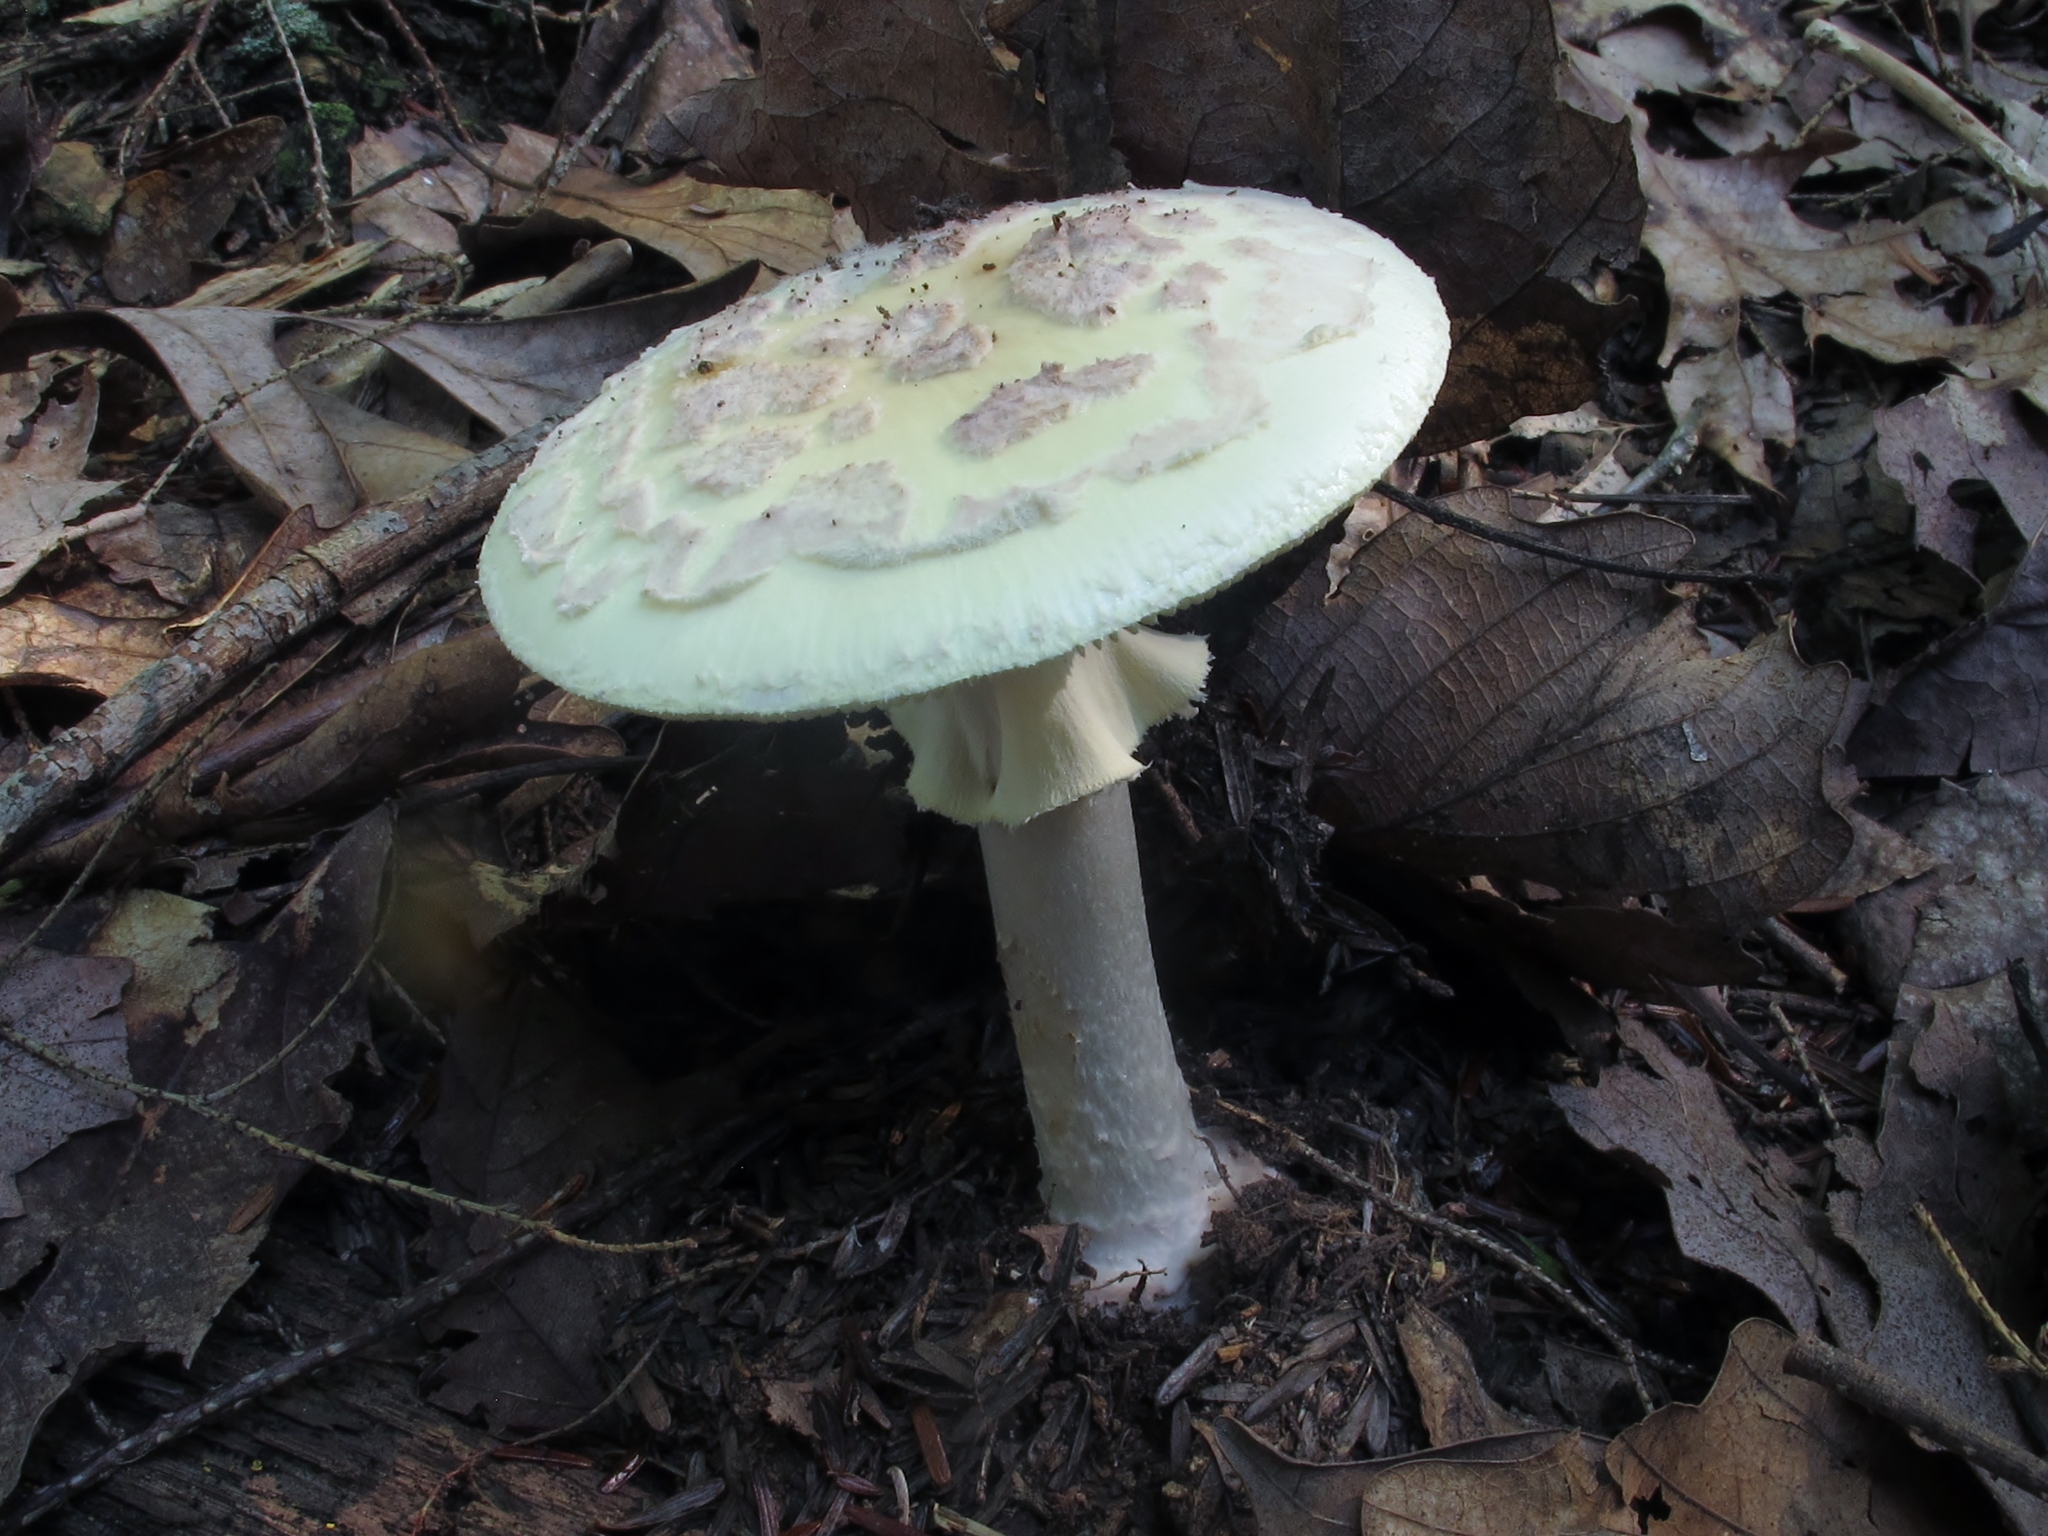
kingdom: Fungi
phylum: Basidiomycota
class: Agaricomycetes
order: Agaricales
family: Amanitaceae
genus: Amanita
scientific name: Amanita citrina
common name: False death-cap
